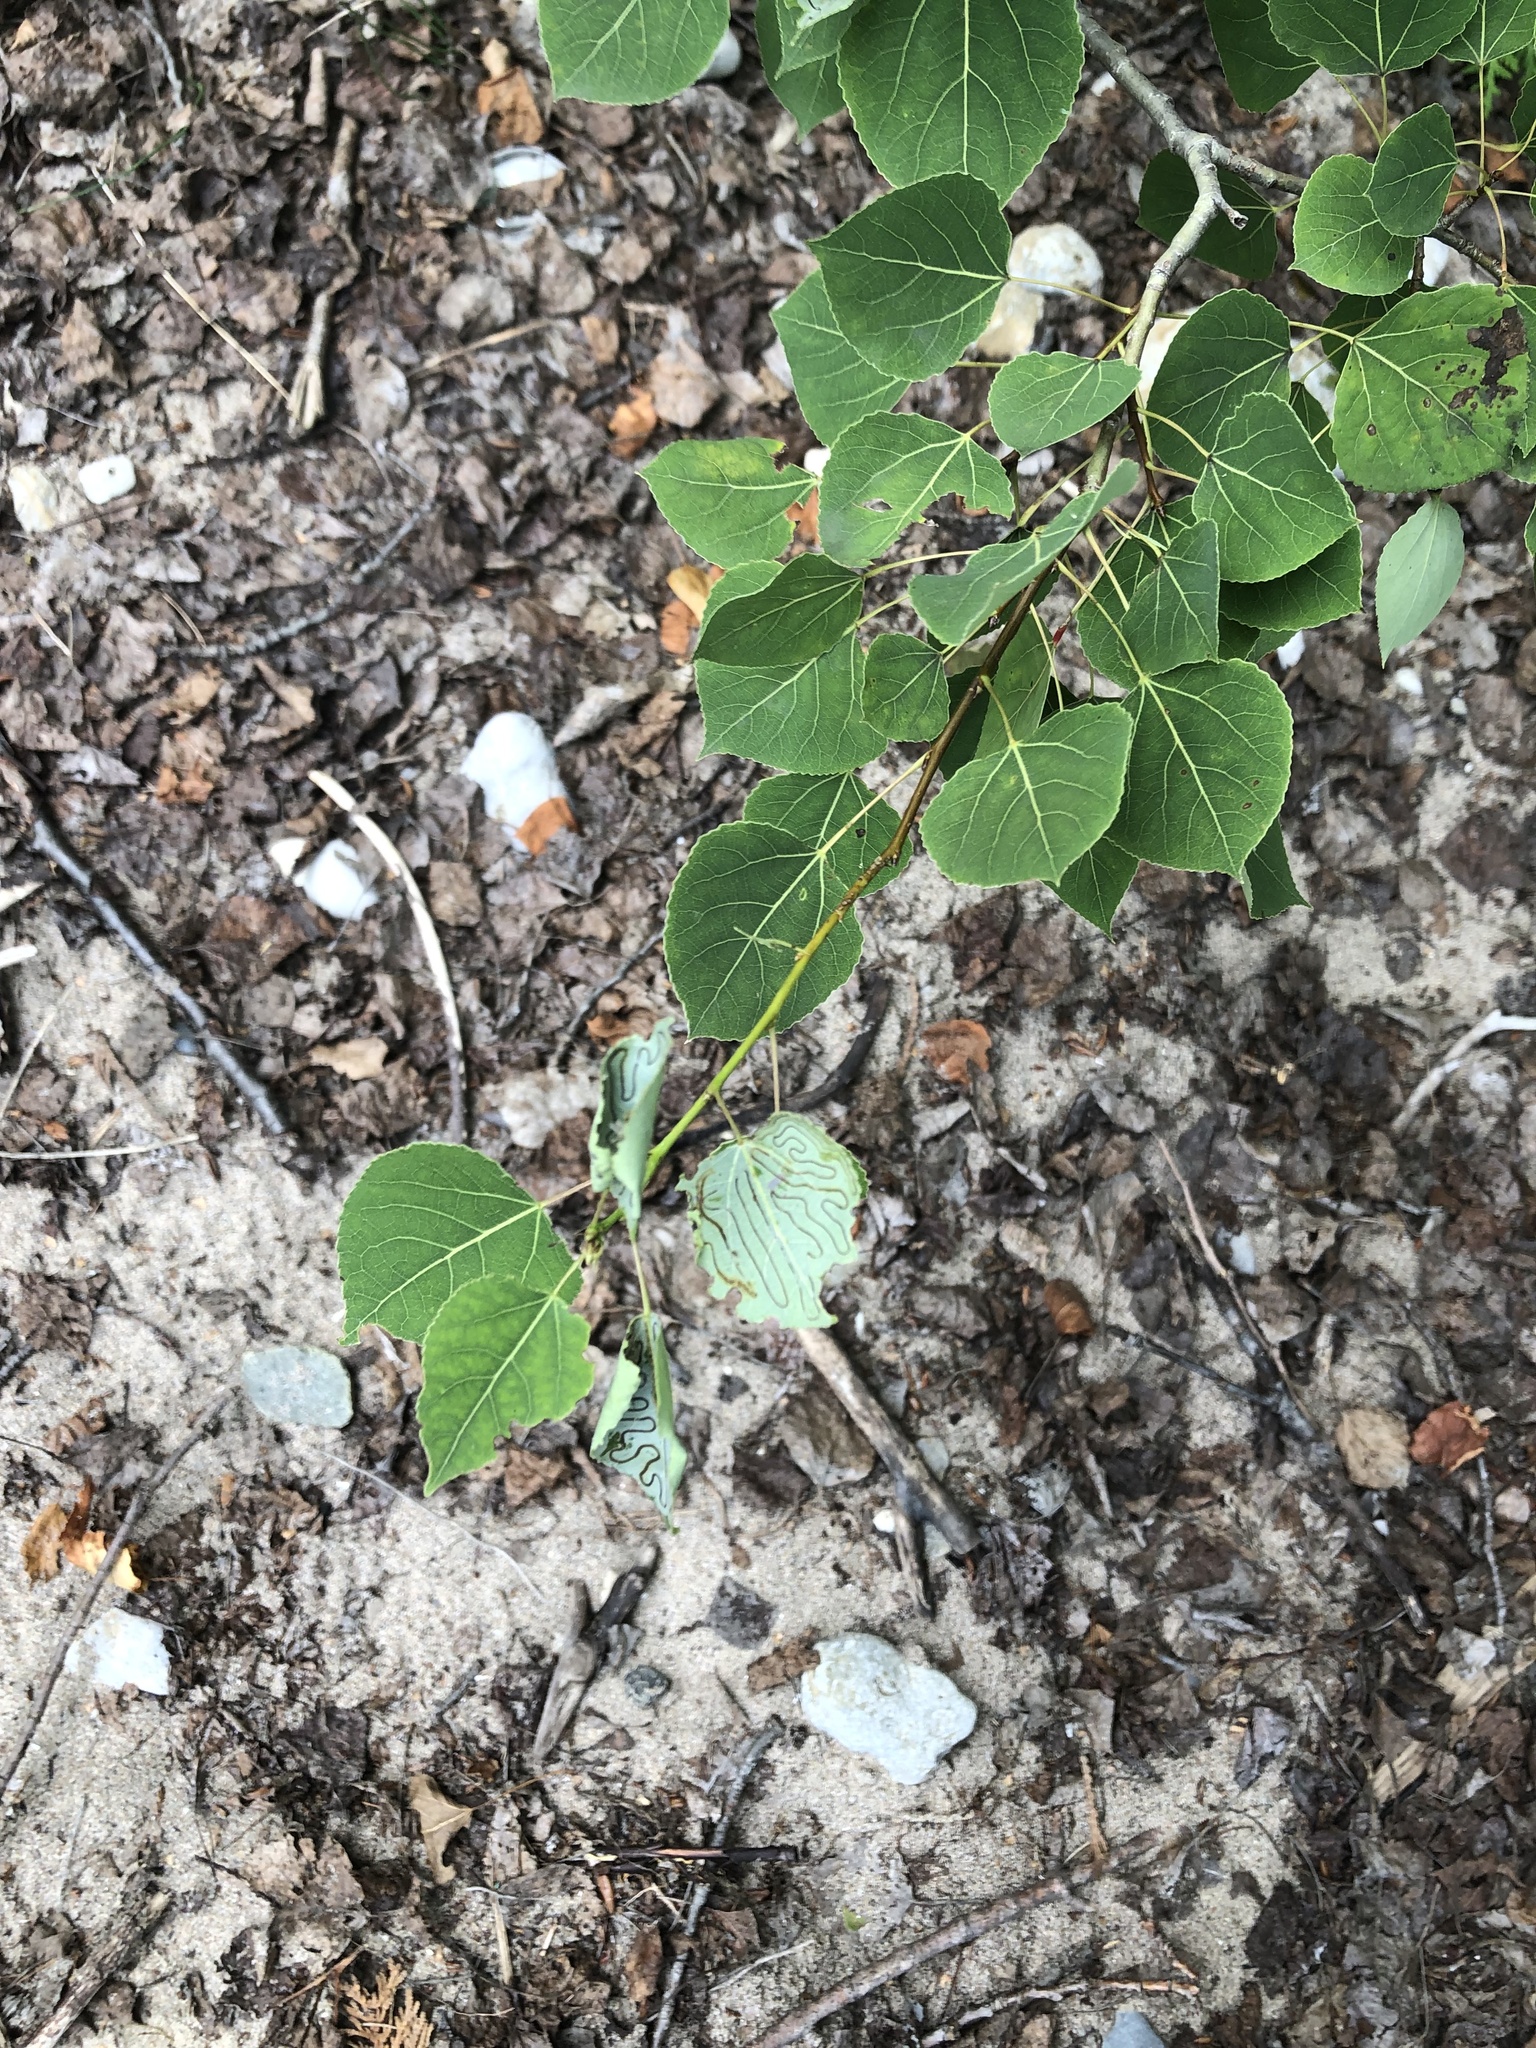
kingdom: Plantae
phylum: Tracheophyta
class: Magnoliopsida
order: Malpighiales
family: Salicaceae
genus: Populus
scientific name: Populus tremuloides
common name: Quaking aspen
